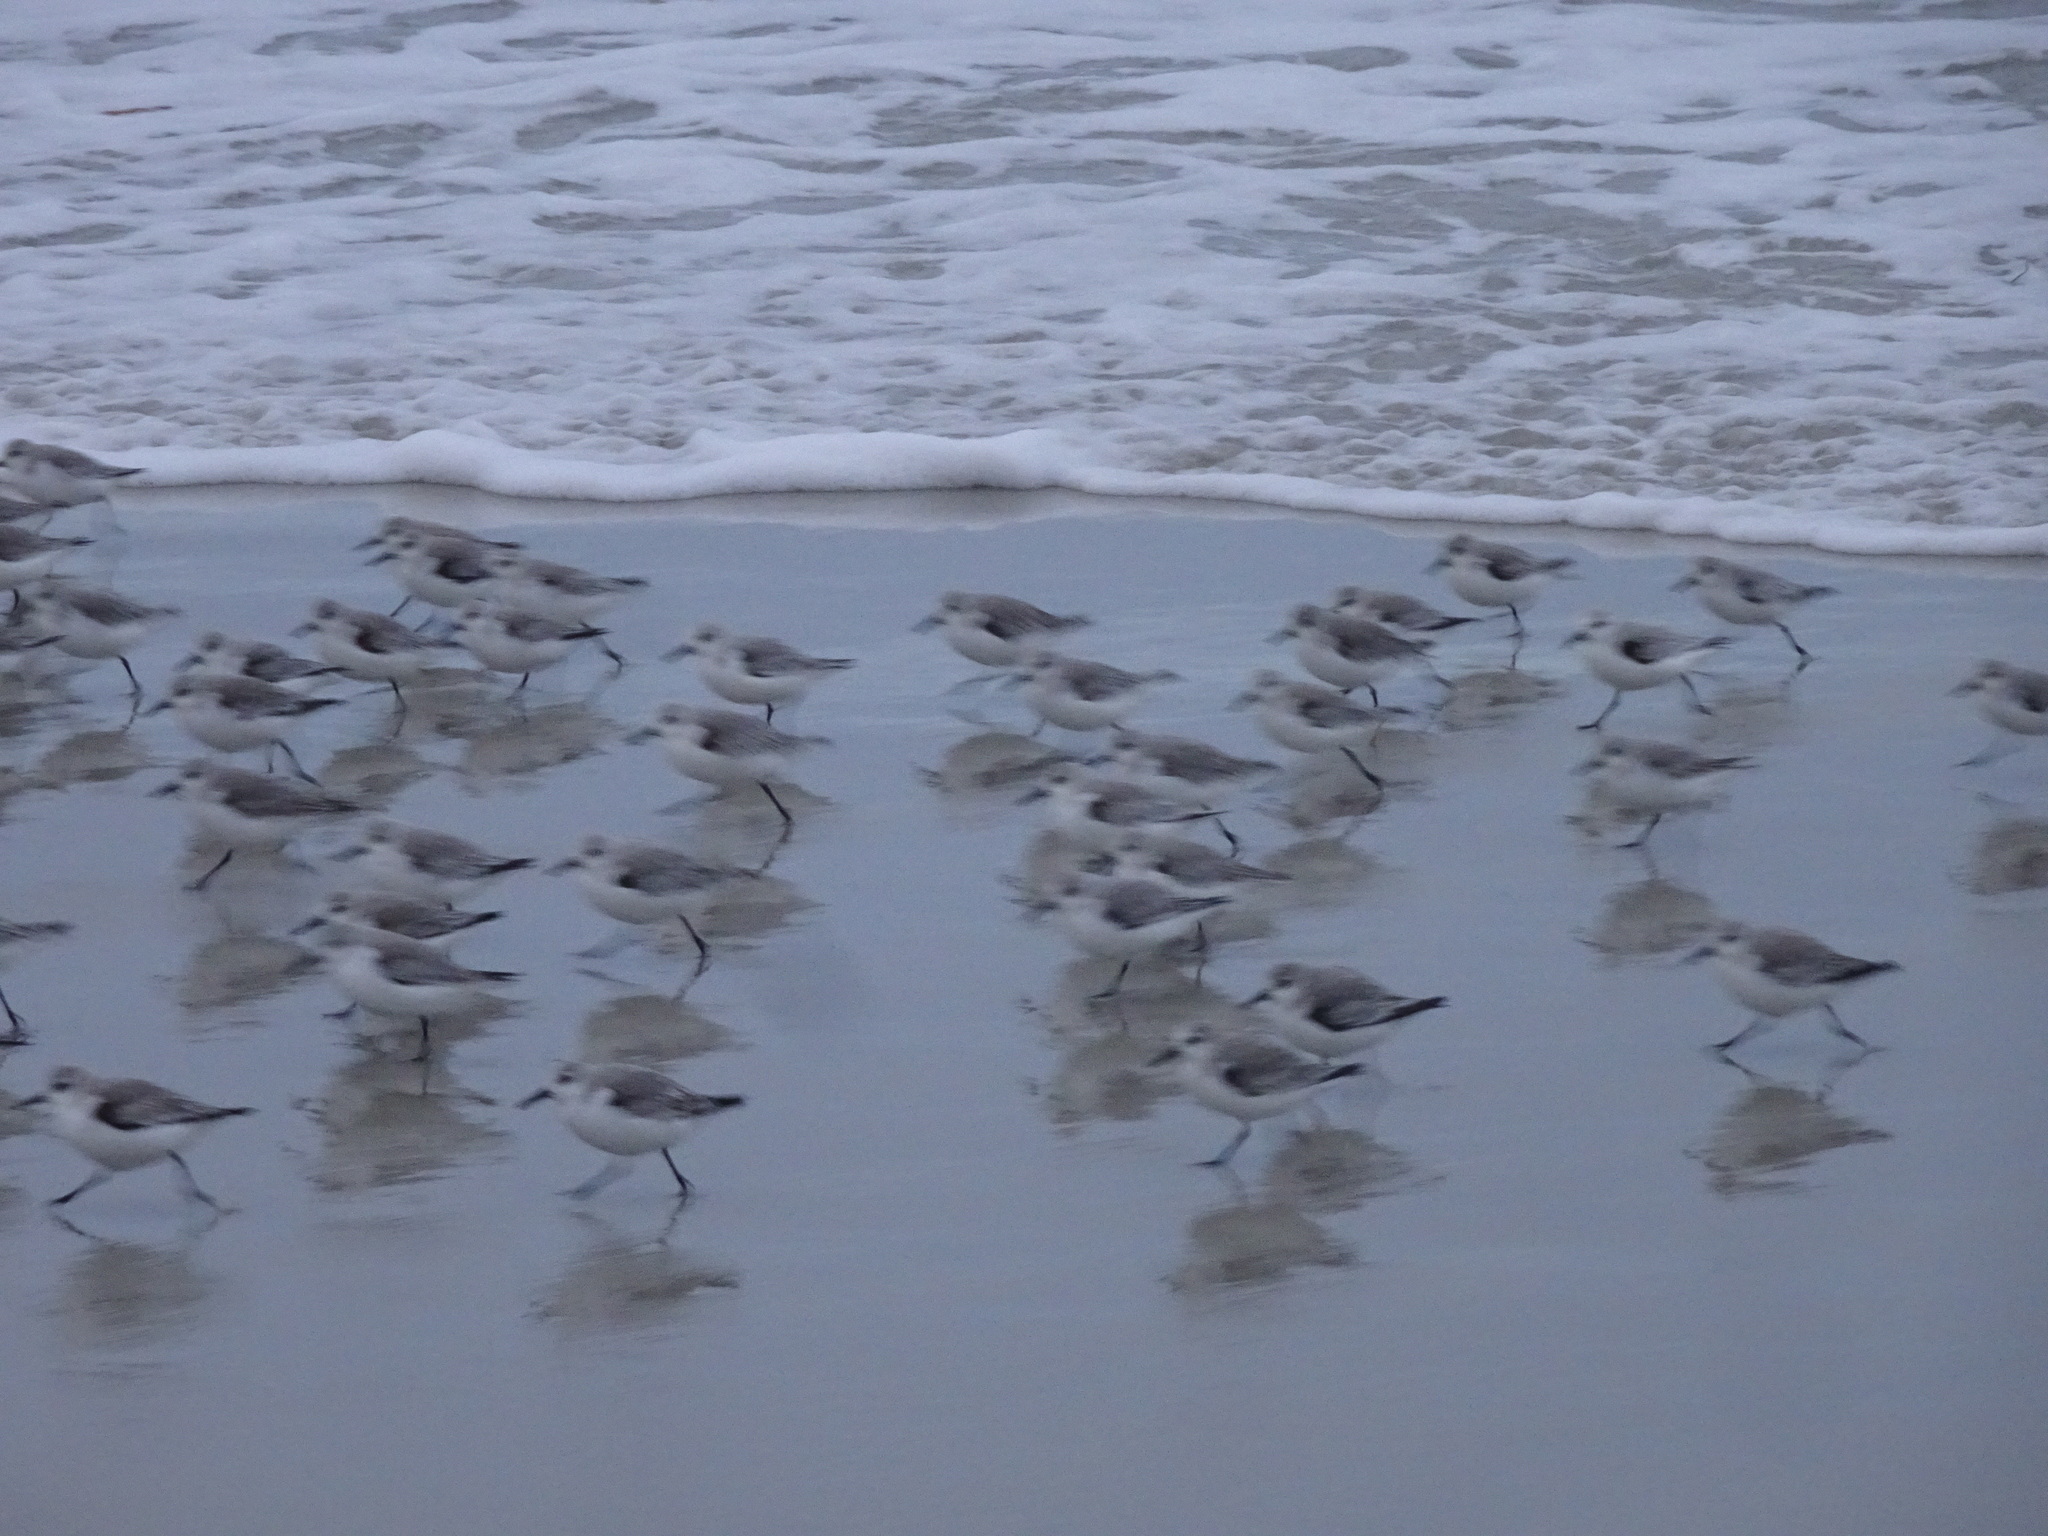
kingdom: Animalia
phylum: Chordata
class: Aves
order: Charadriiformes
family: Scolopacidae
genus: Calidris
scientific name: Calidris alba
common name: Sanderling
